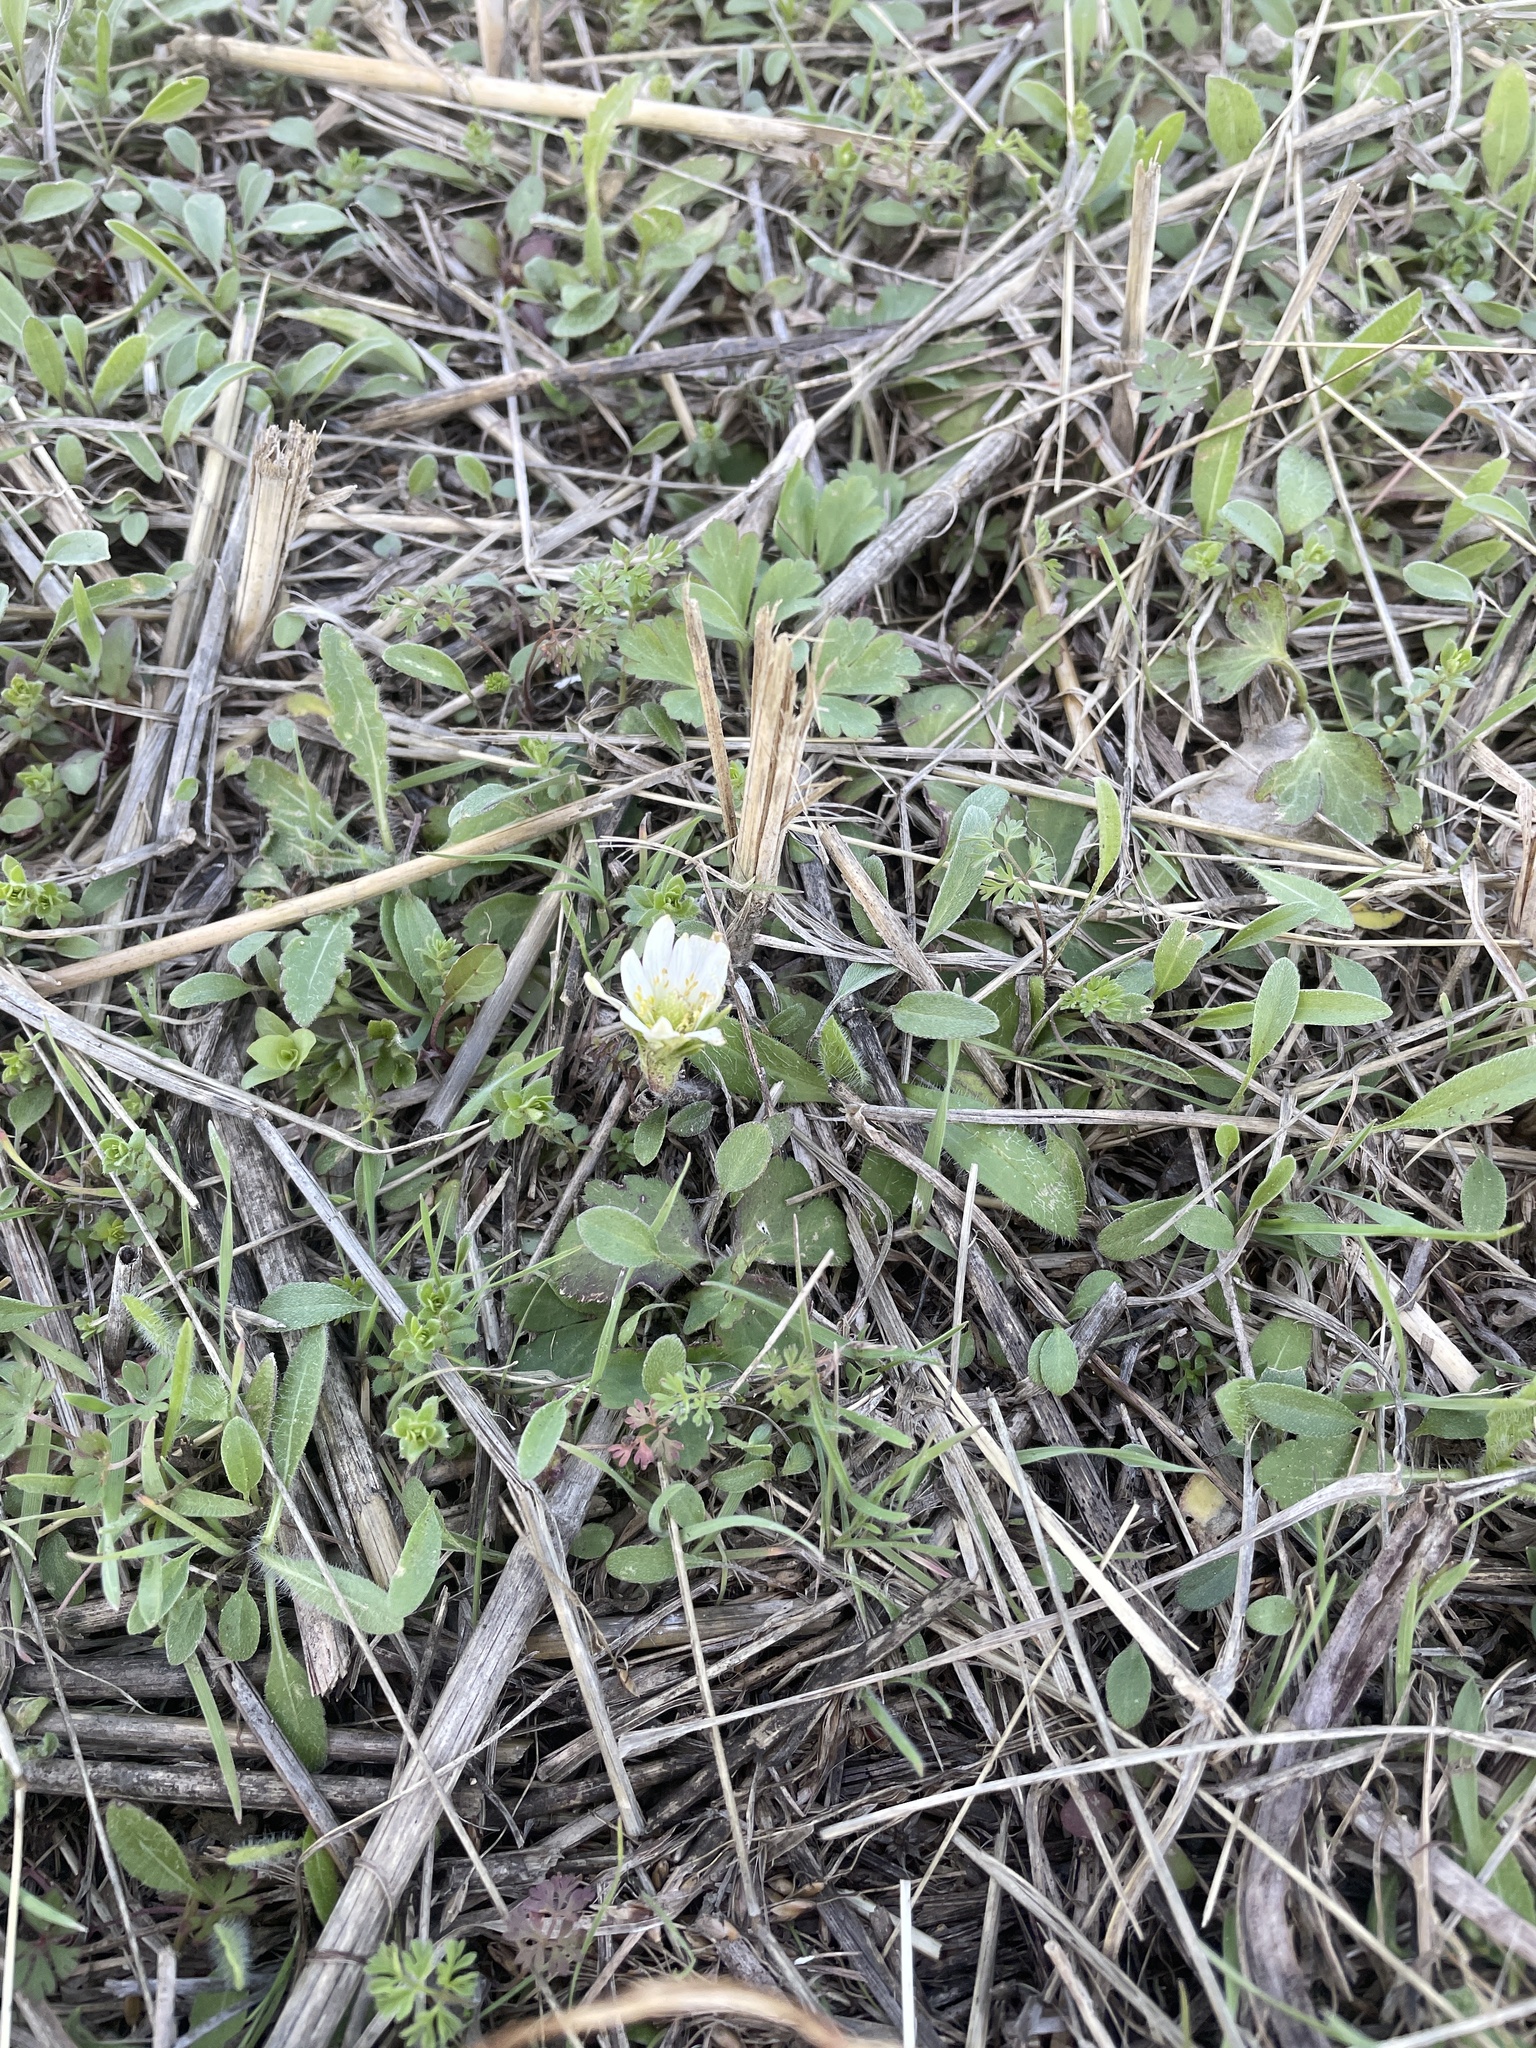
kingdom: Plantae
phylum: Tracheophyta
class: Magnoliopsida
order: Ranunculales
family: Ranunculaceae
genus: Anemone
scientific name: Anemone berlandieri
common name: Ten-petal anemone
